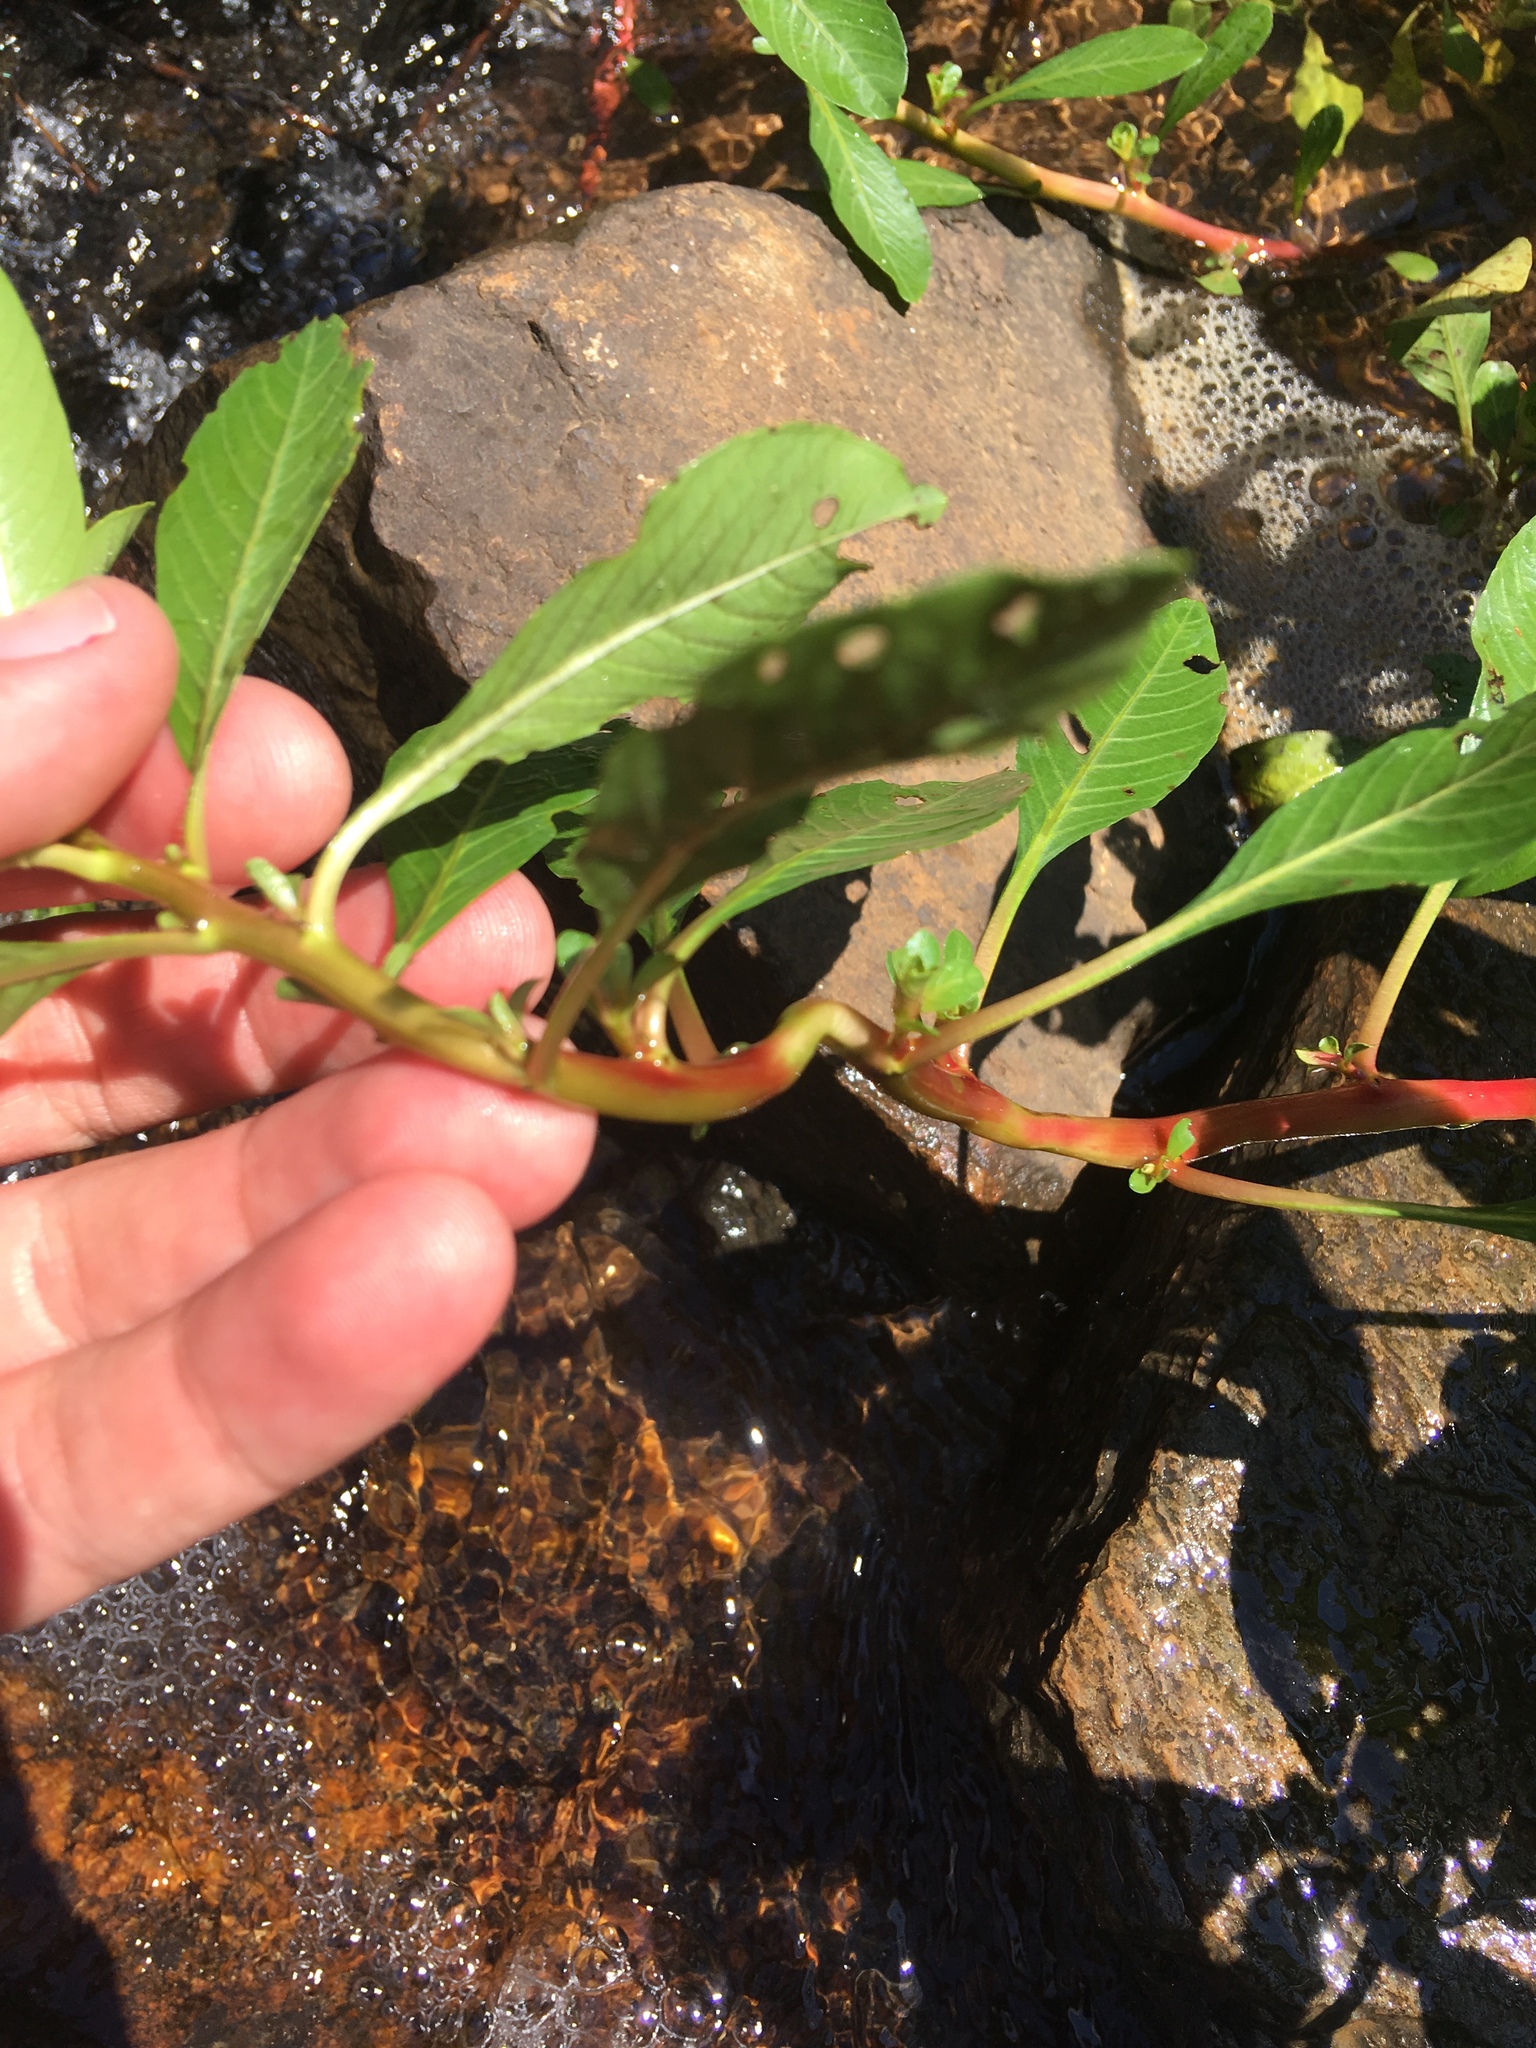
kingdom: Plantae
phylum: Tracheophyta
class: Magnoliopsida
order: Myrtales
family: Onagraceae
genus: Ludwigia
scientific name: Ludwigia peploides
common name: Floating primrose-willow
